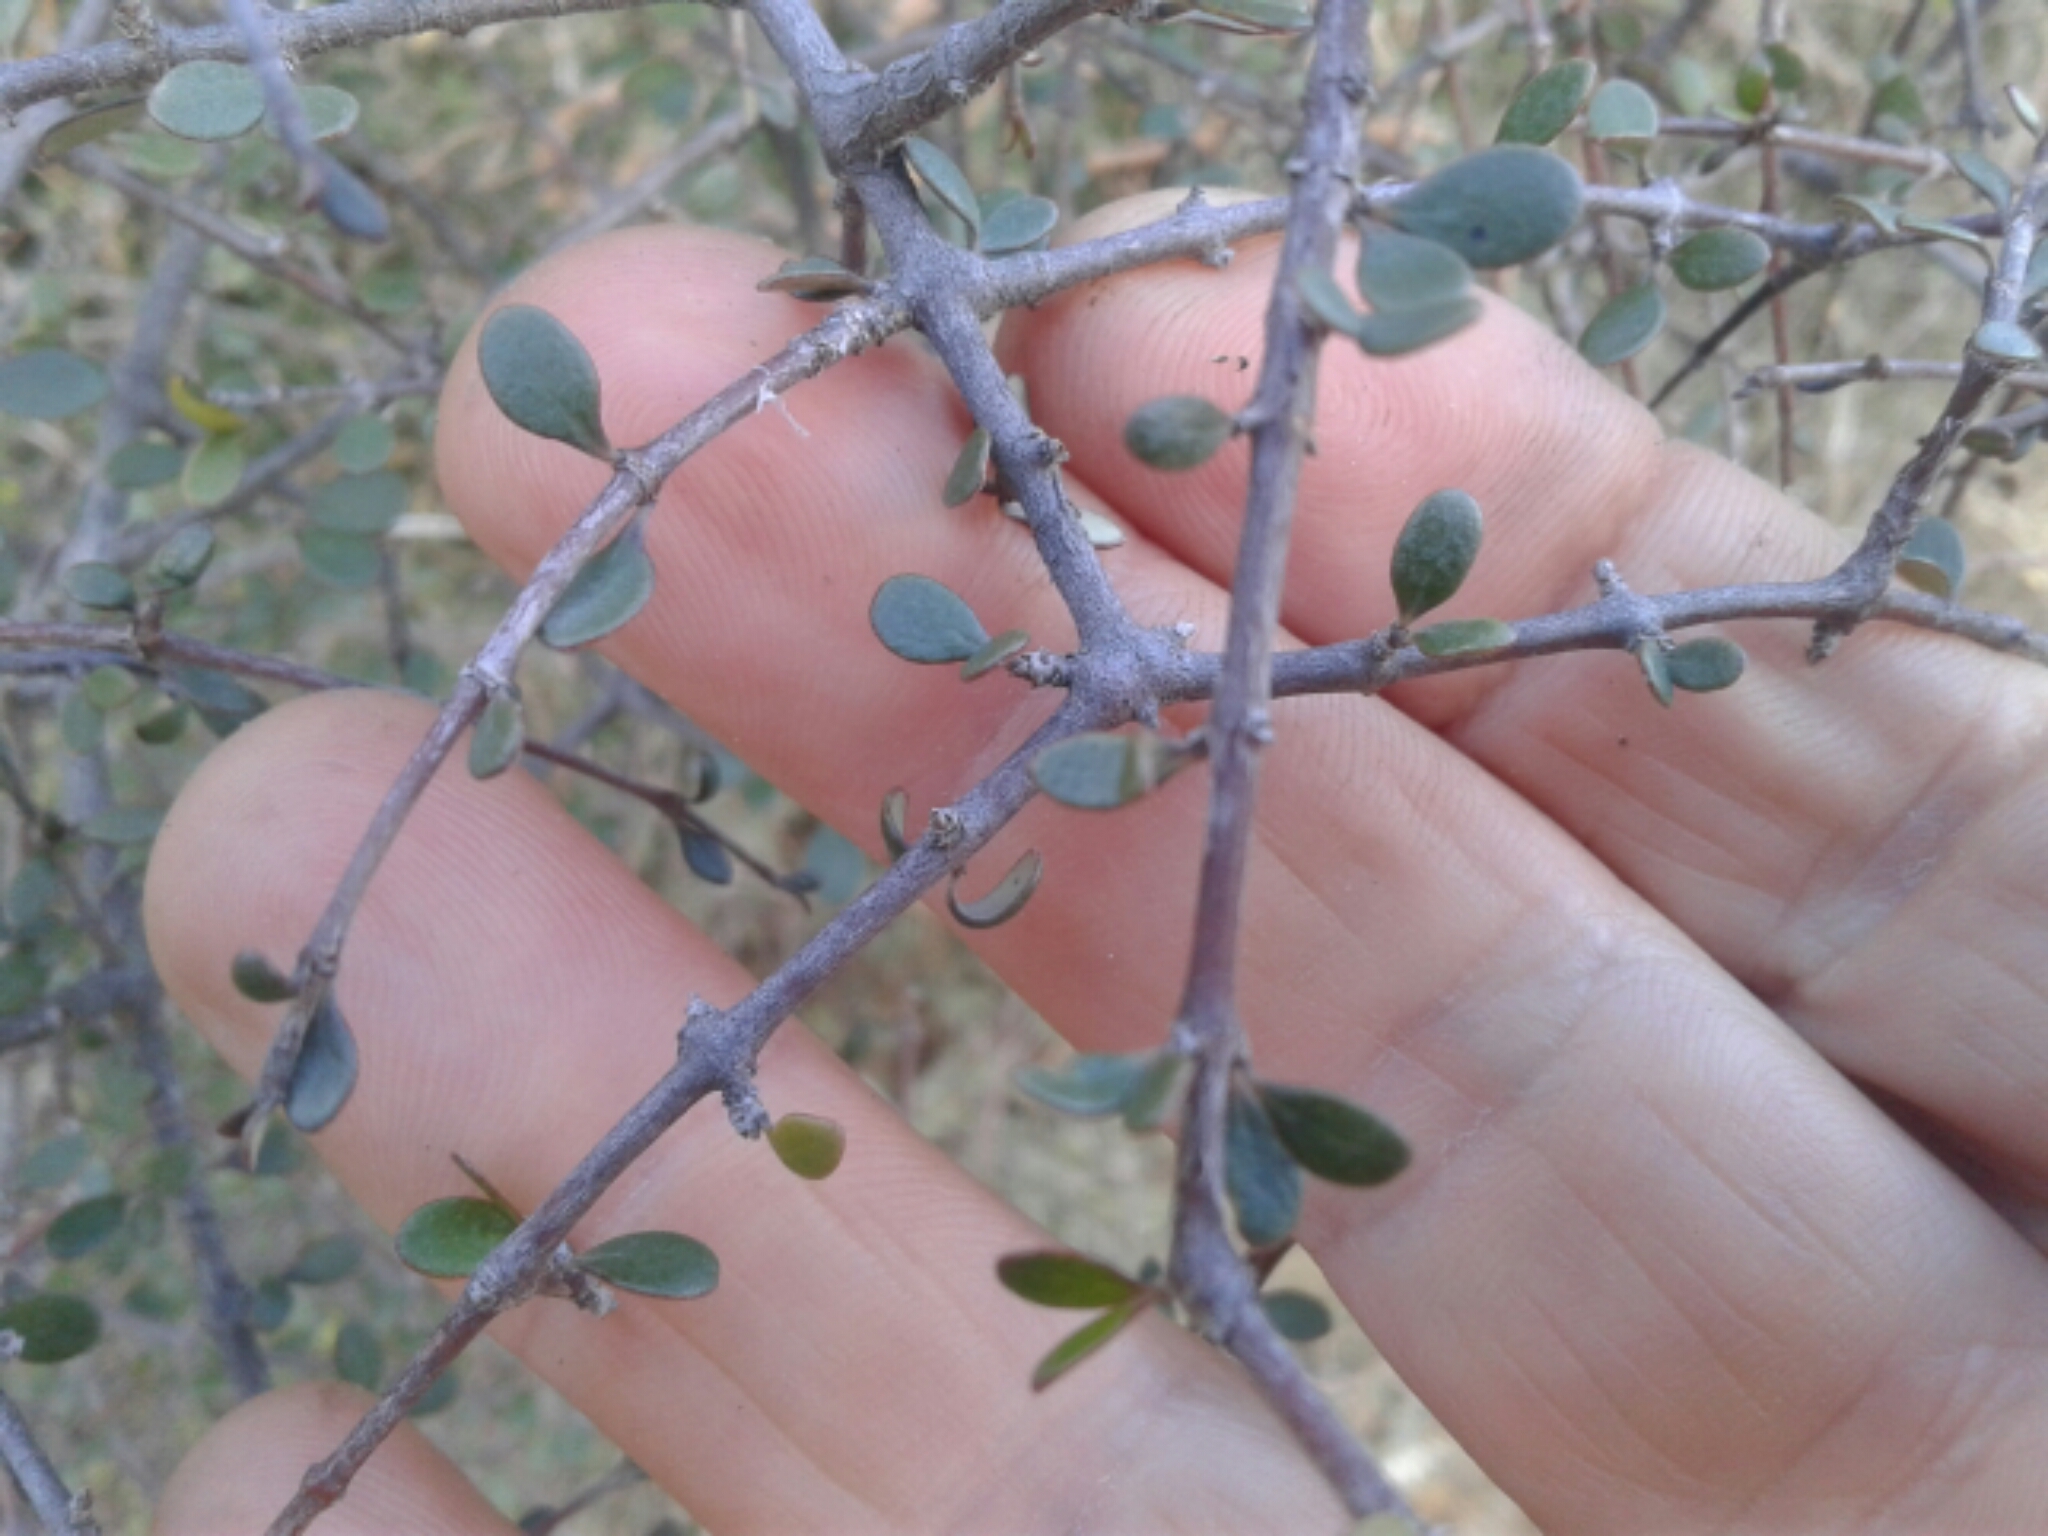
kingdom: Plantae
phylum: Tracheophyta
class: Magnoliopsida
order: Gentianales
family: Rubiaceae
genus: Coprosma
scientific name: Coprosma rigida
